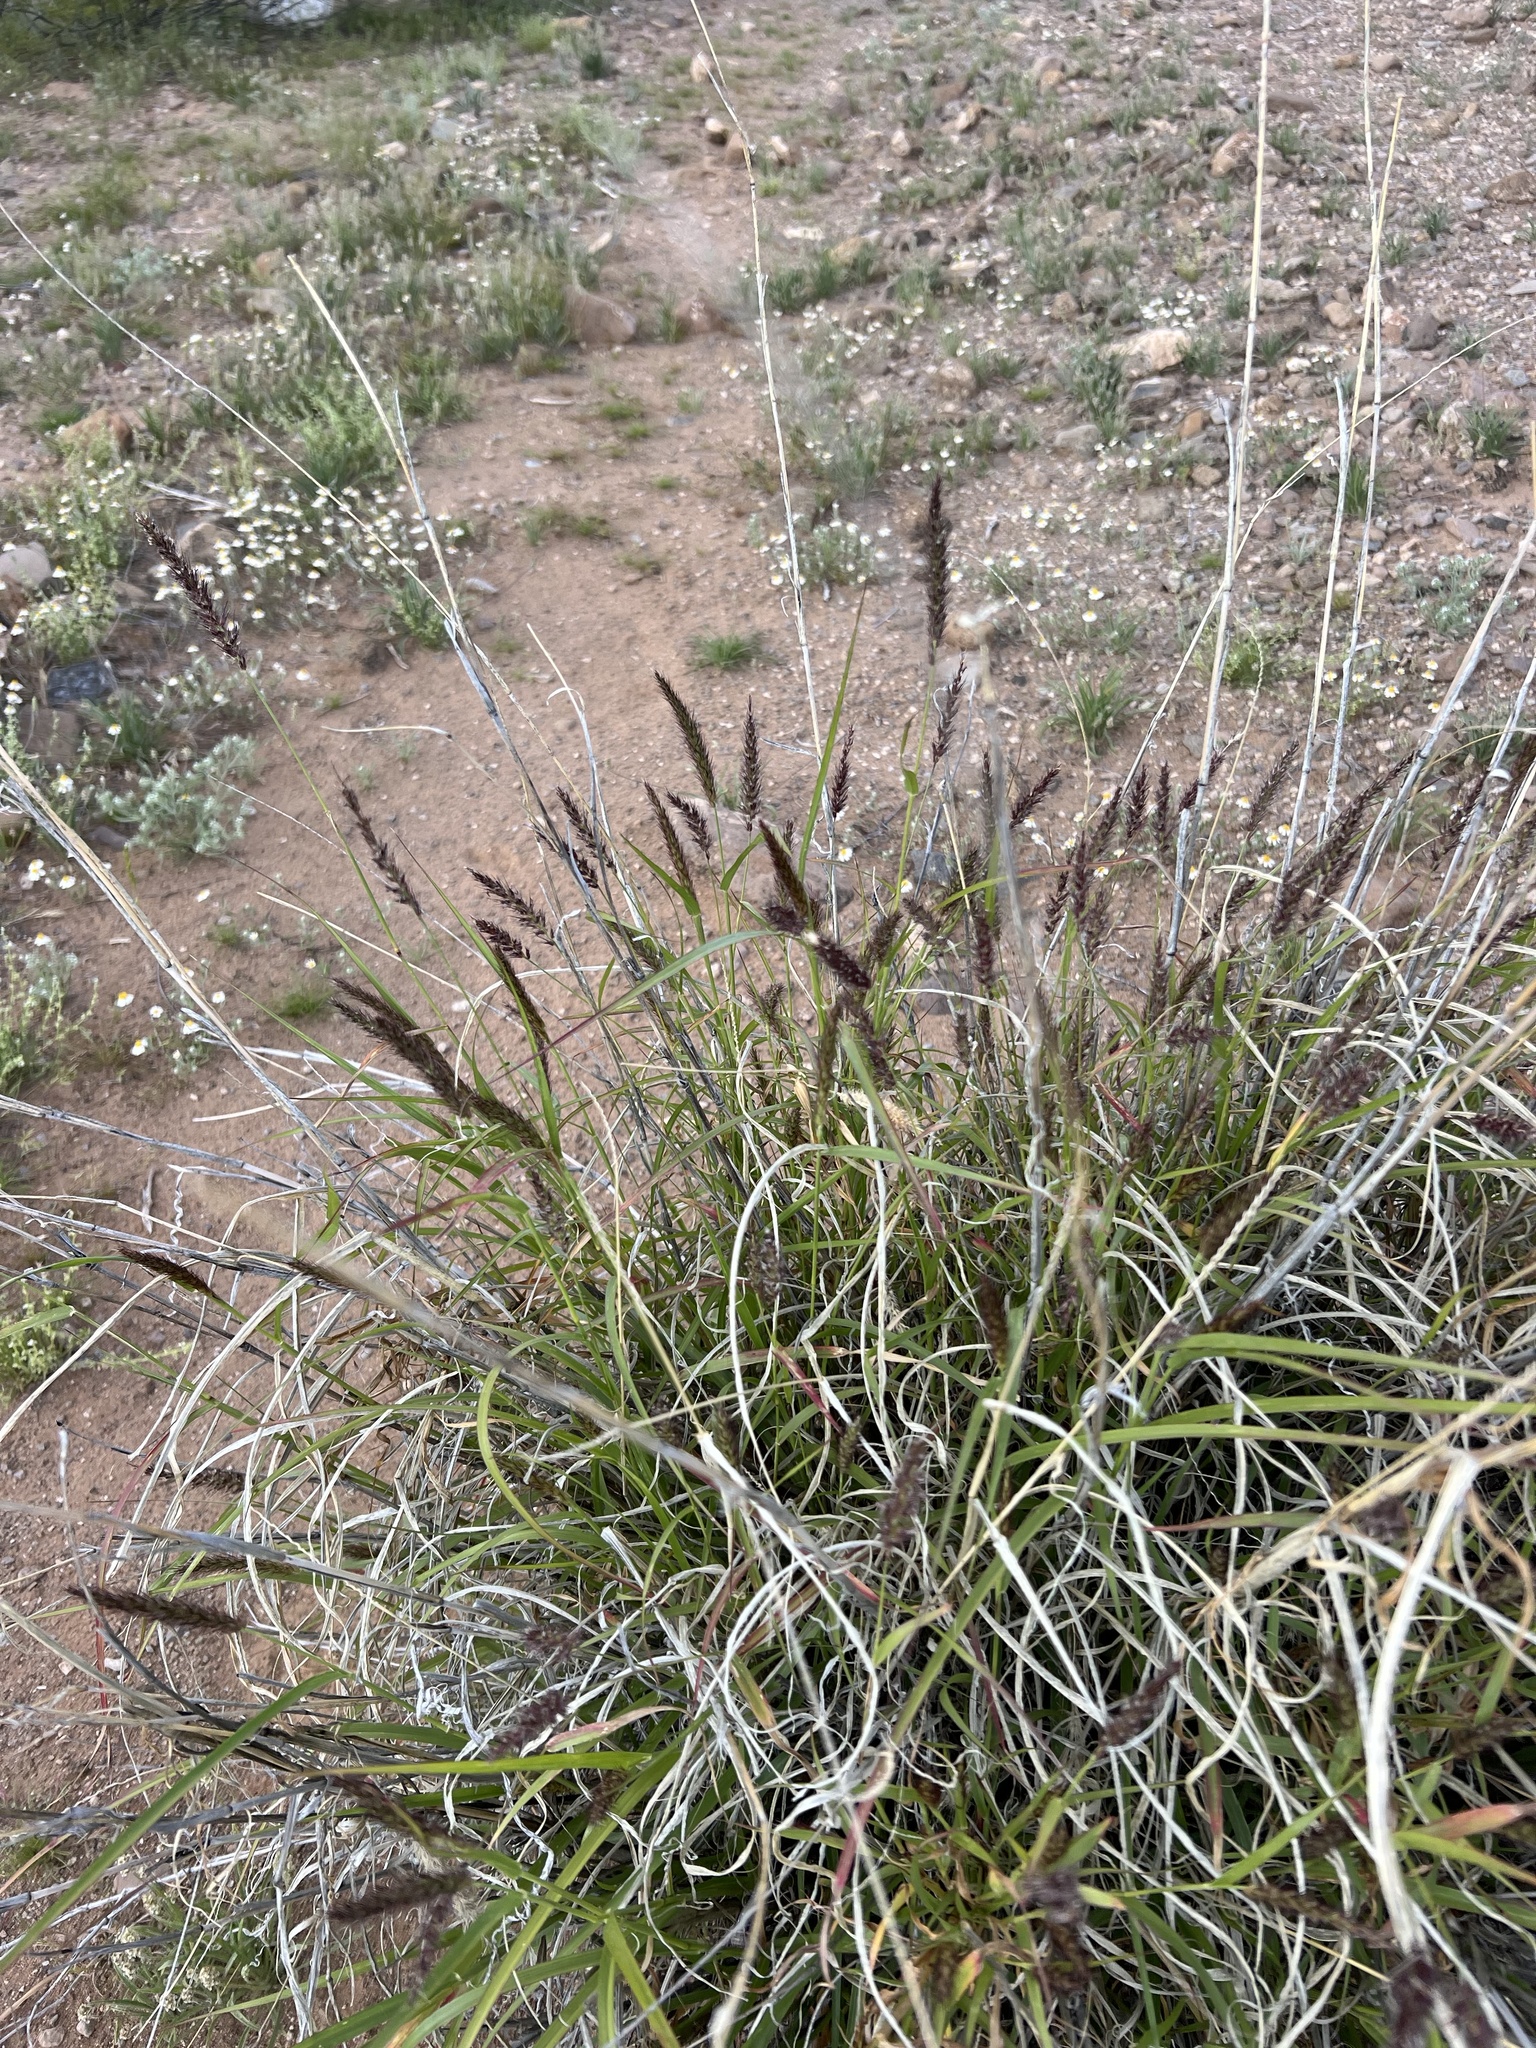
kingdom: Plantae
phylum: Tracheophyta
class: Liliopsida
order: Poales
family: Poaceae
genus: Cenchrus
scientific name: Cenchrus ciliaris
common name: Buffelgrass
